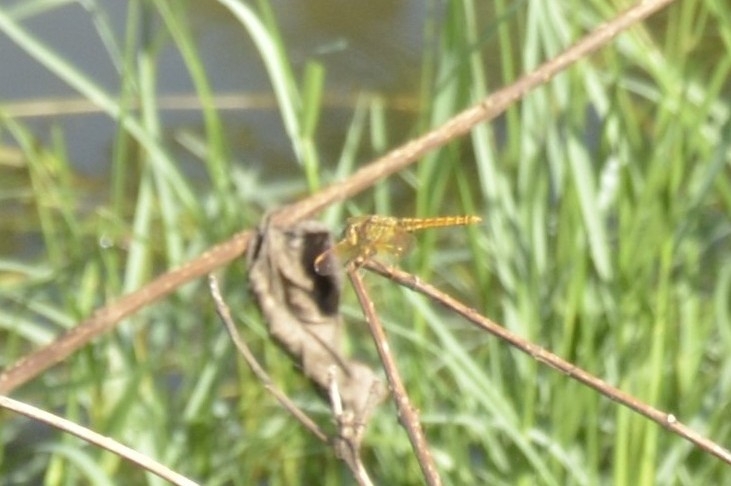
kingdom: Animalia
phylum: Arthropoda
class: Insecta
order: Odonata
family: Libellulidae
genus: Brachythemis
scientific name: Brachythemis contaminata
